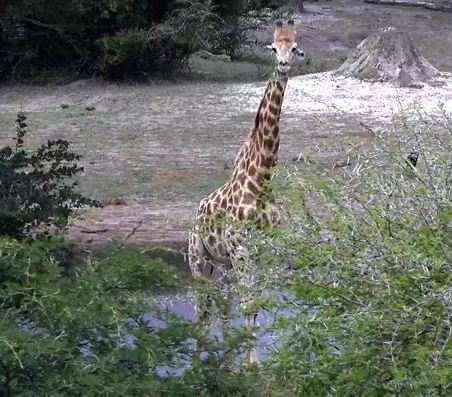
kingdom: Animalia
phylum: Chordata
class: Mammalia
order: Artiodactyla
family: Giraffidae
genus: Giraffa
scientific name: Giraffa giraffa
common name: Southern giraffe
